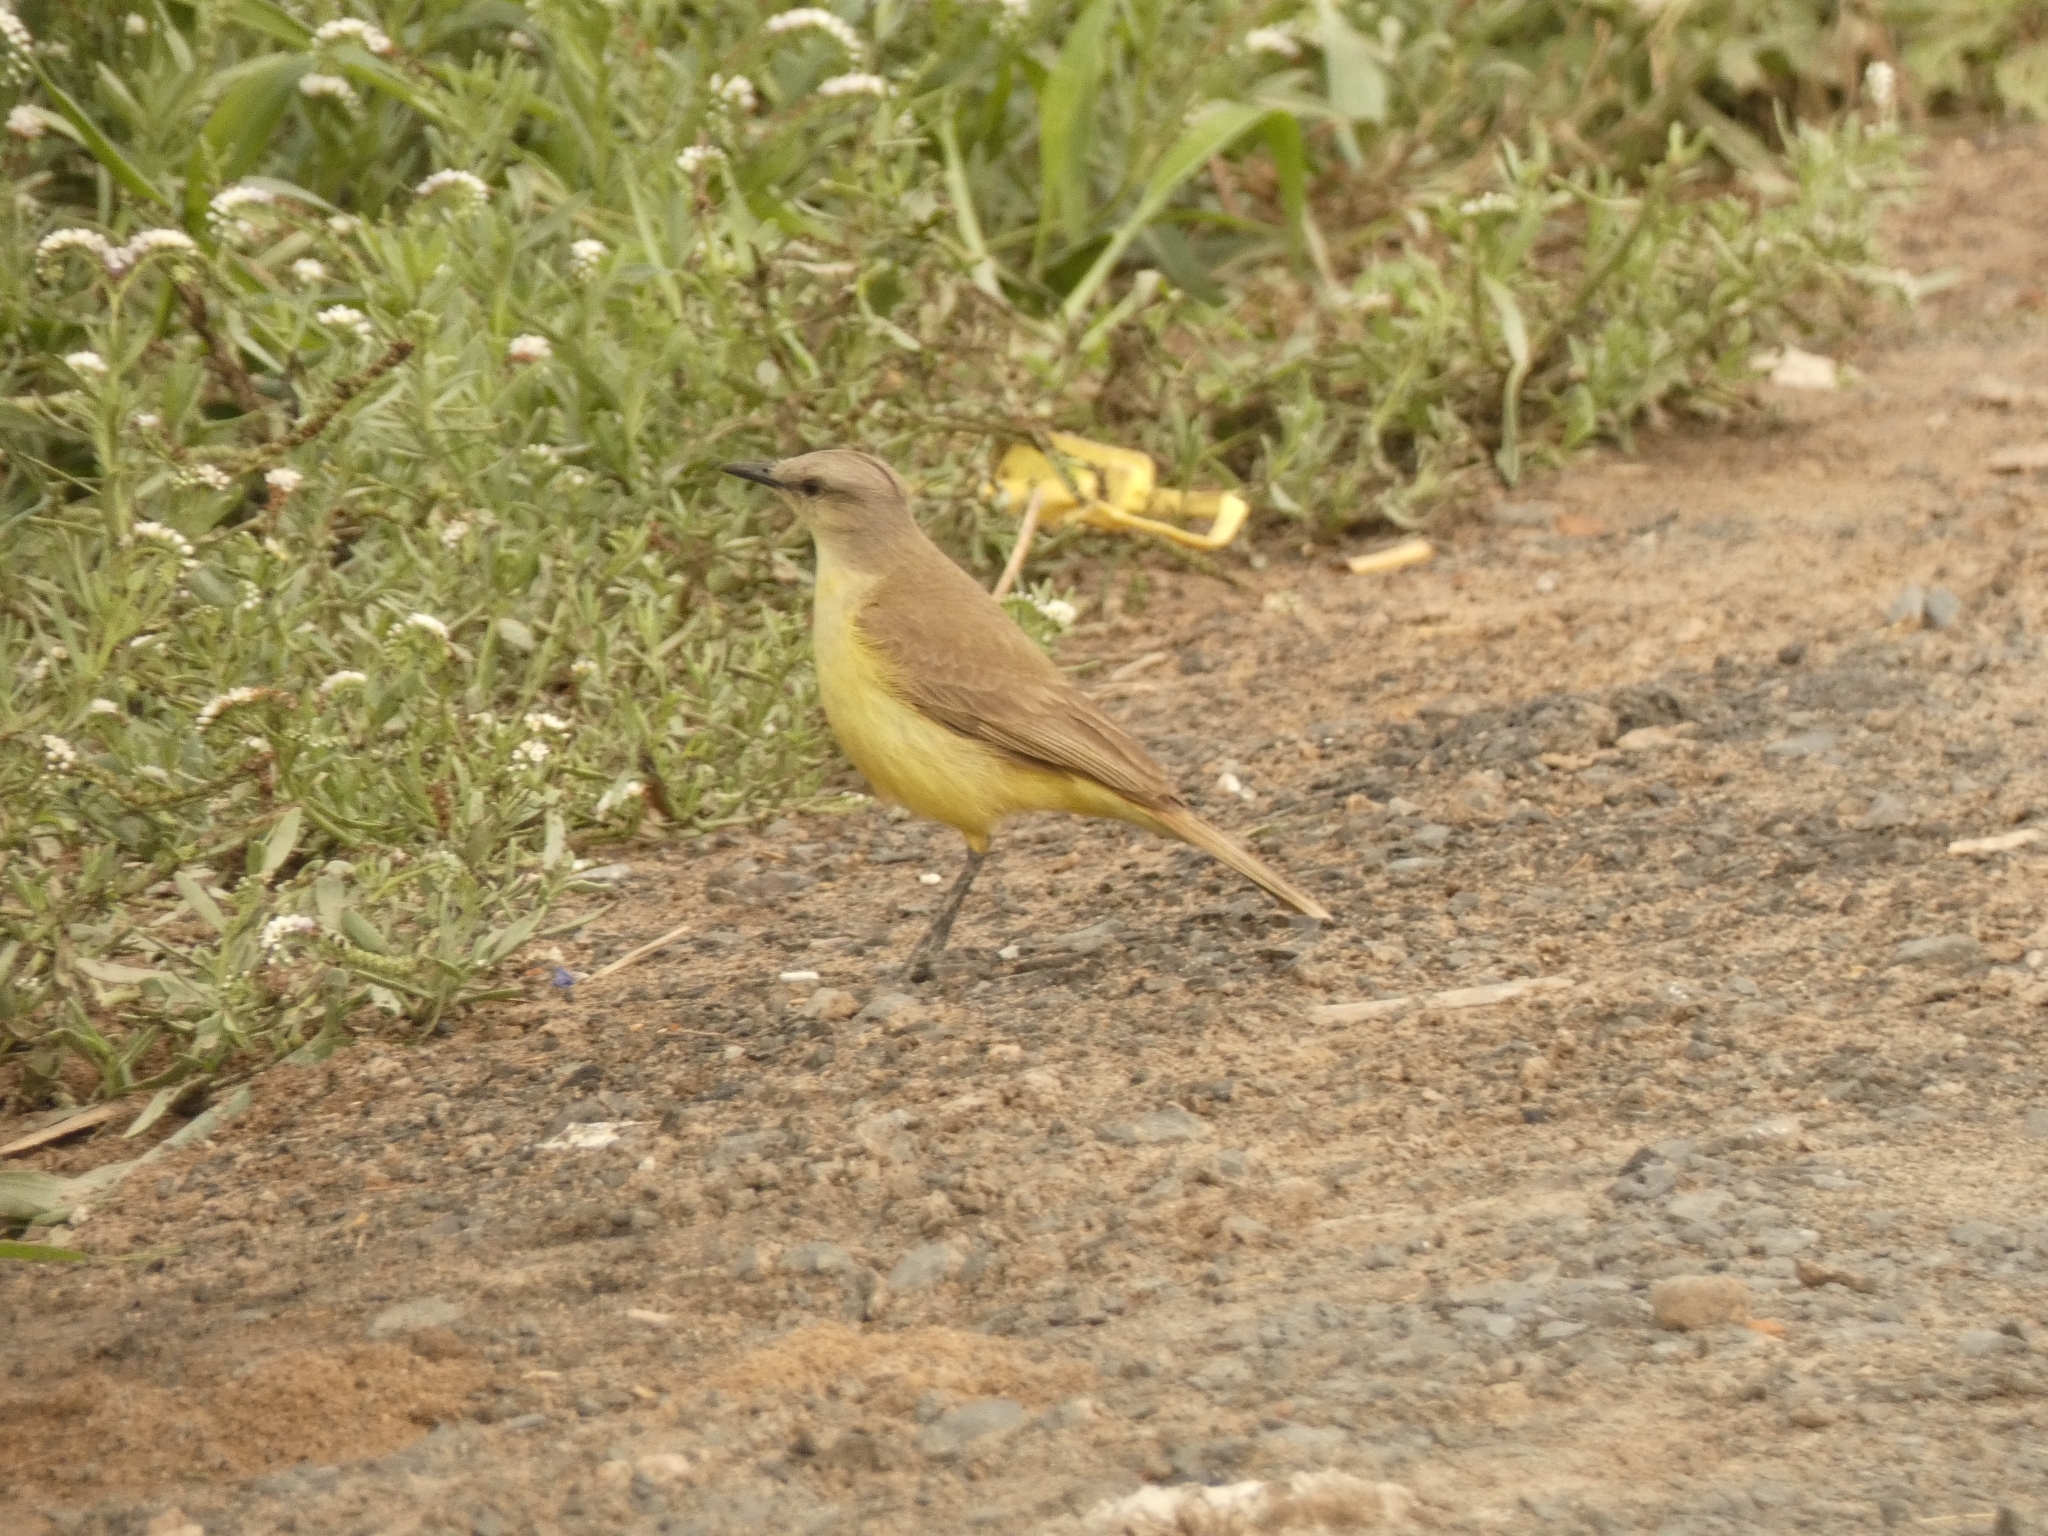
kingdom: Animalia
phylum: Chordata
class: Aves
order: Passeriformes
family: Tyrannidae
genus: Machetornis
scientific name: Machetornis rixosa
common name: Cattle tyrant
